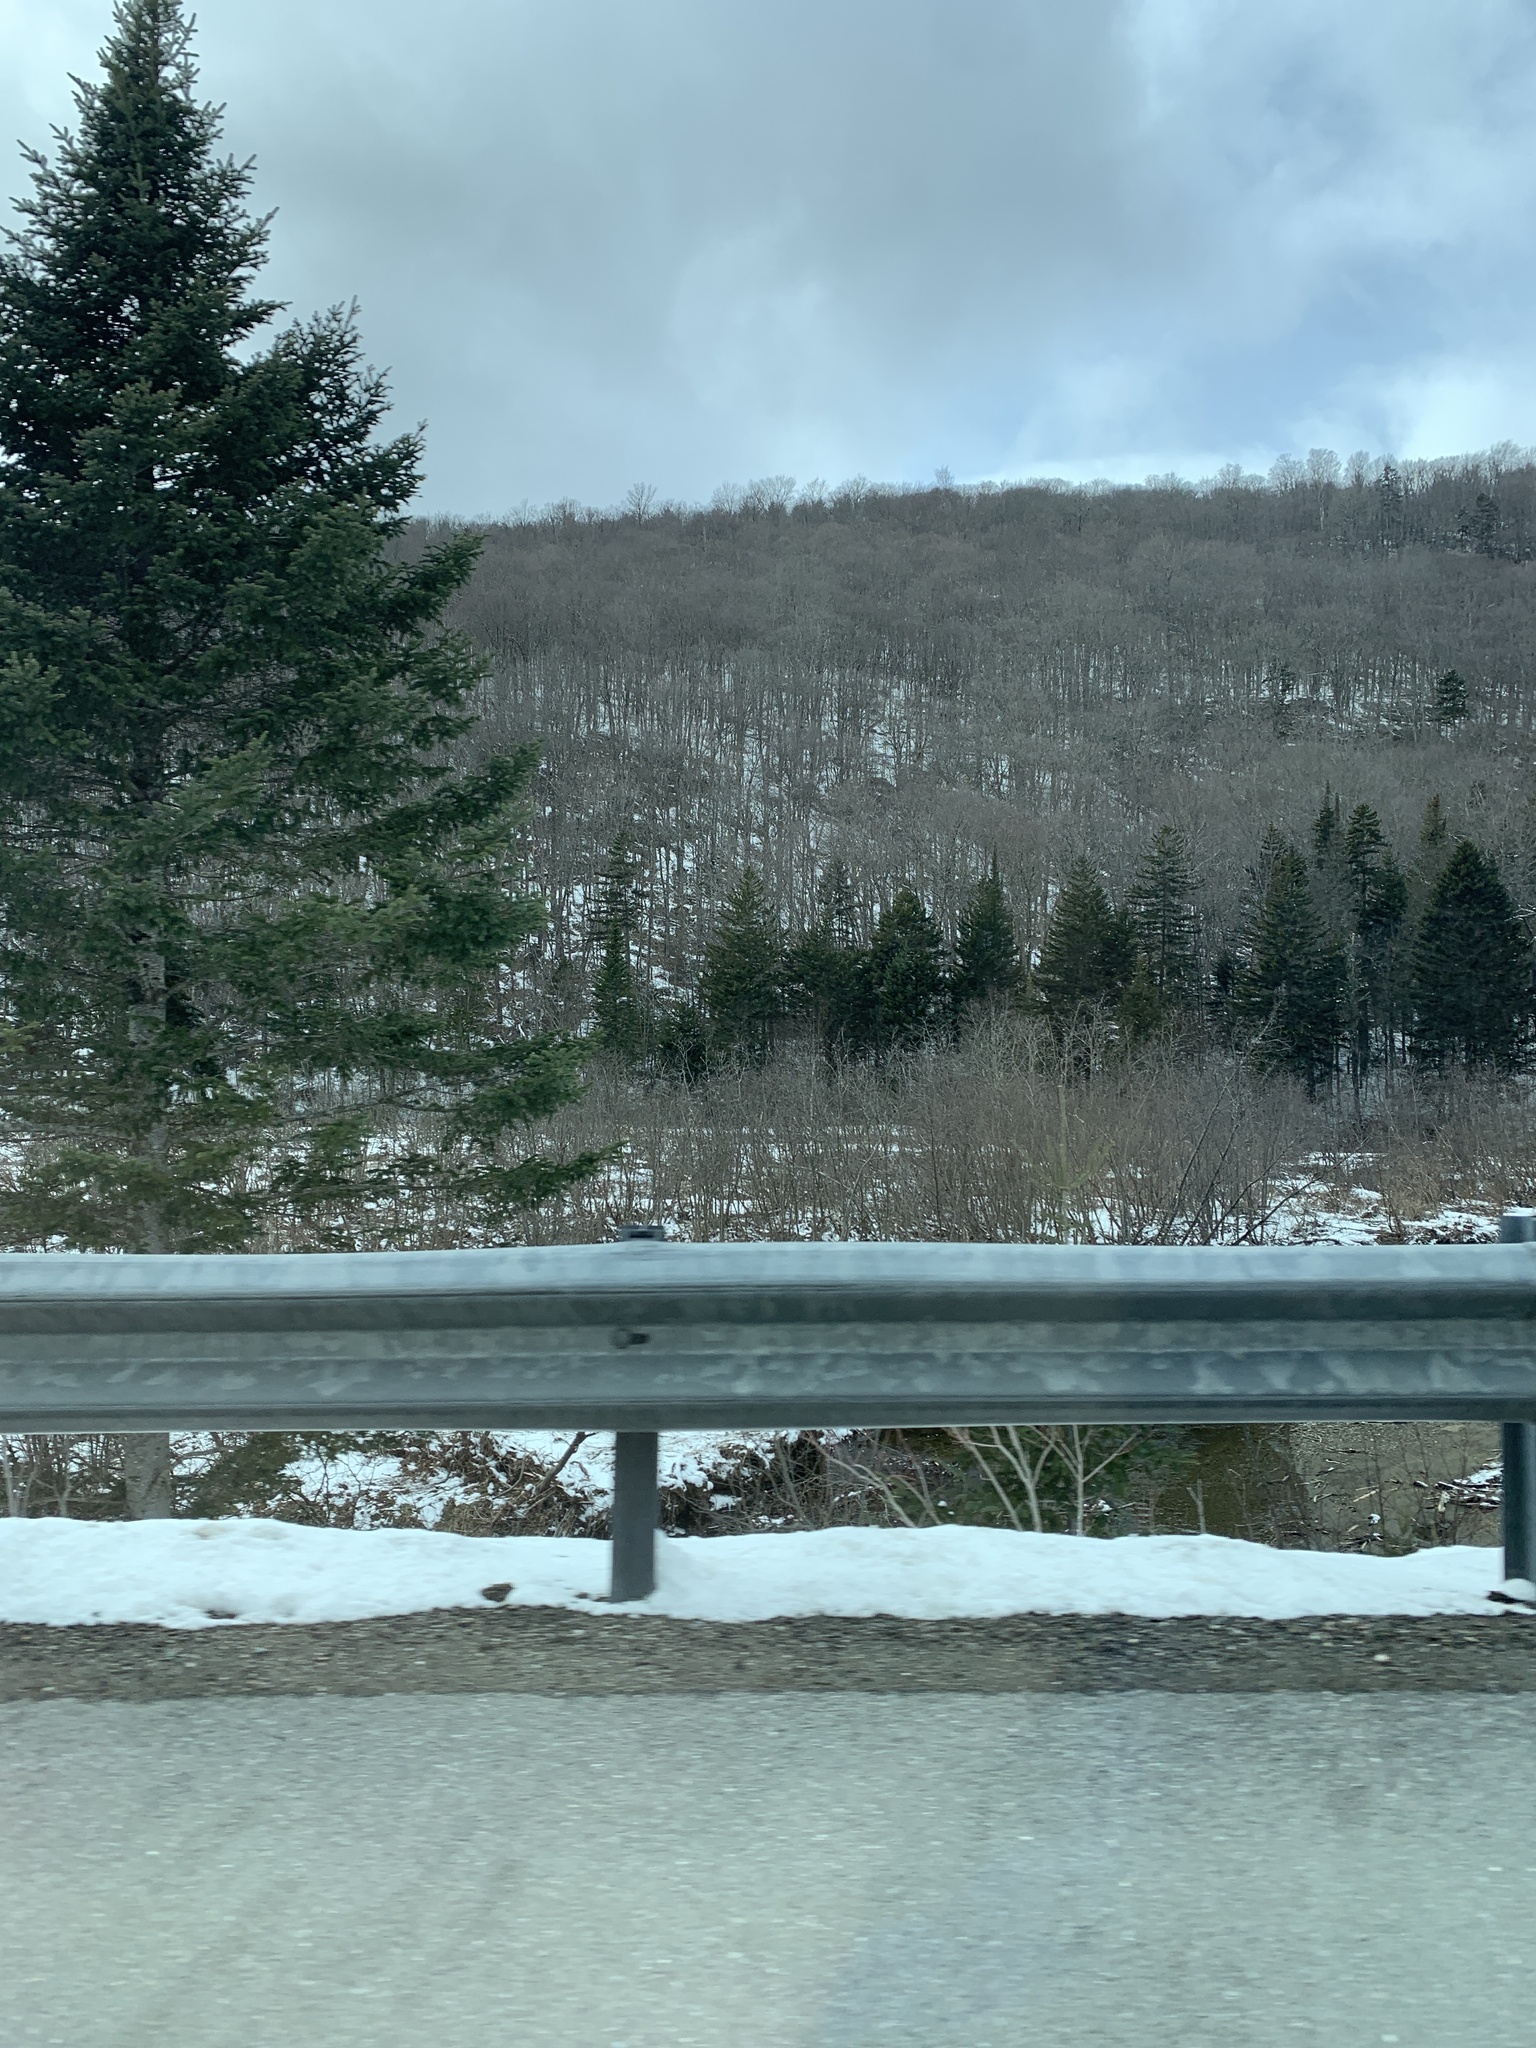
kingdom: Plantae
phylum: Tracheophyta
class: Pinopsida
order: Pinales
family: Pinaceae
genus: Abies
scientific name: Abies balsamea
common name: Balsam fir
